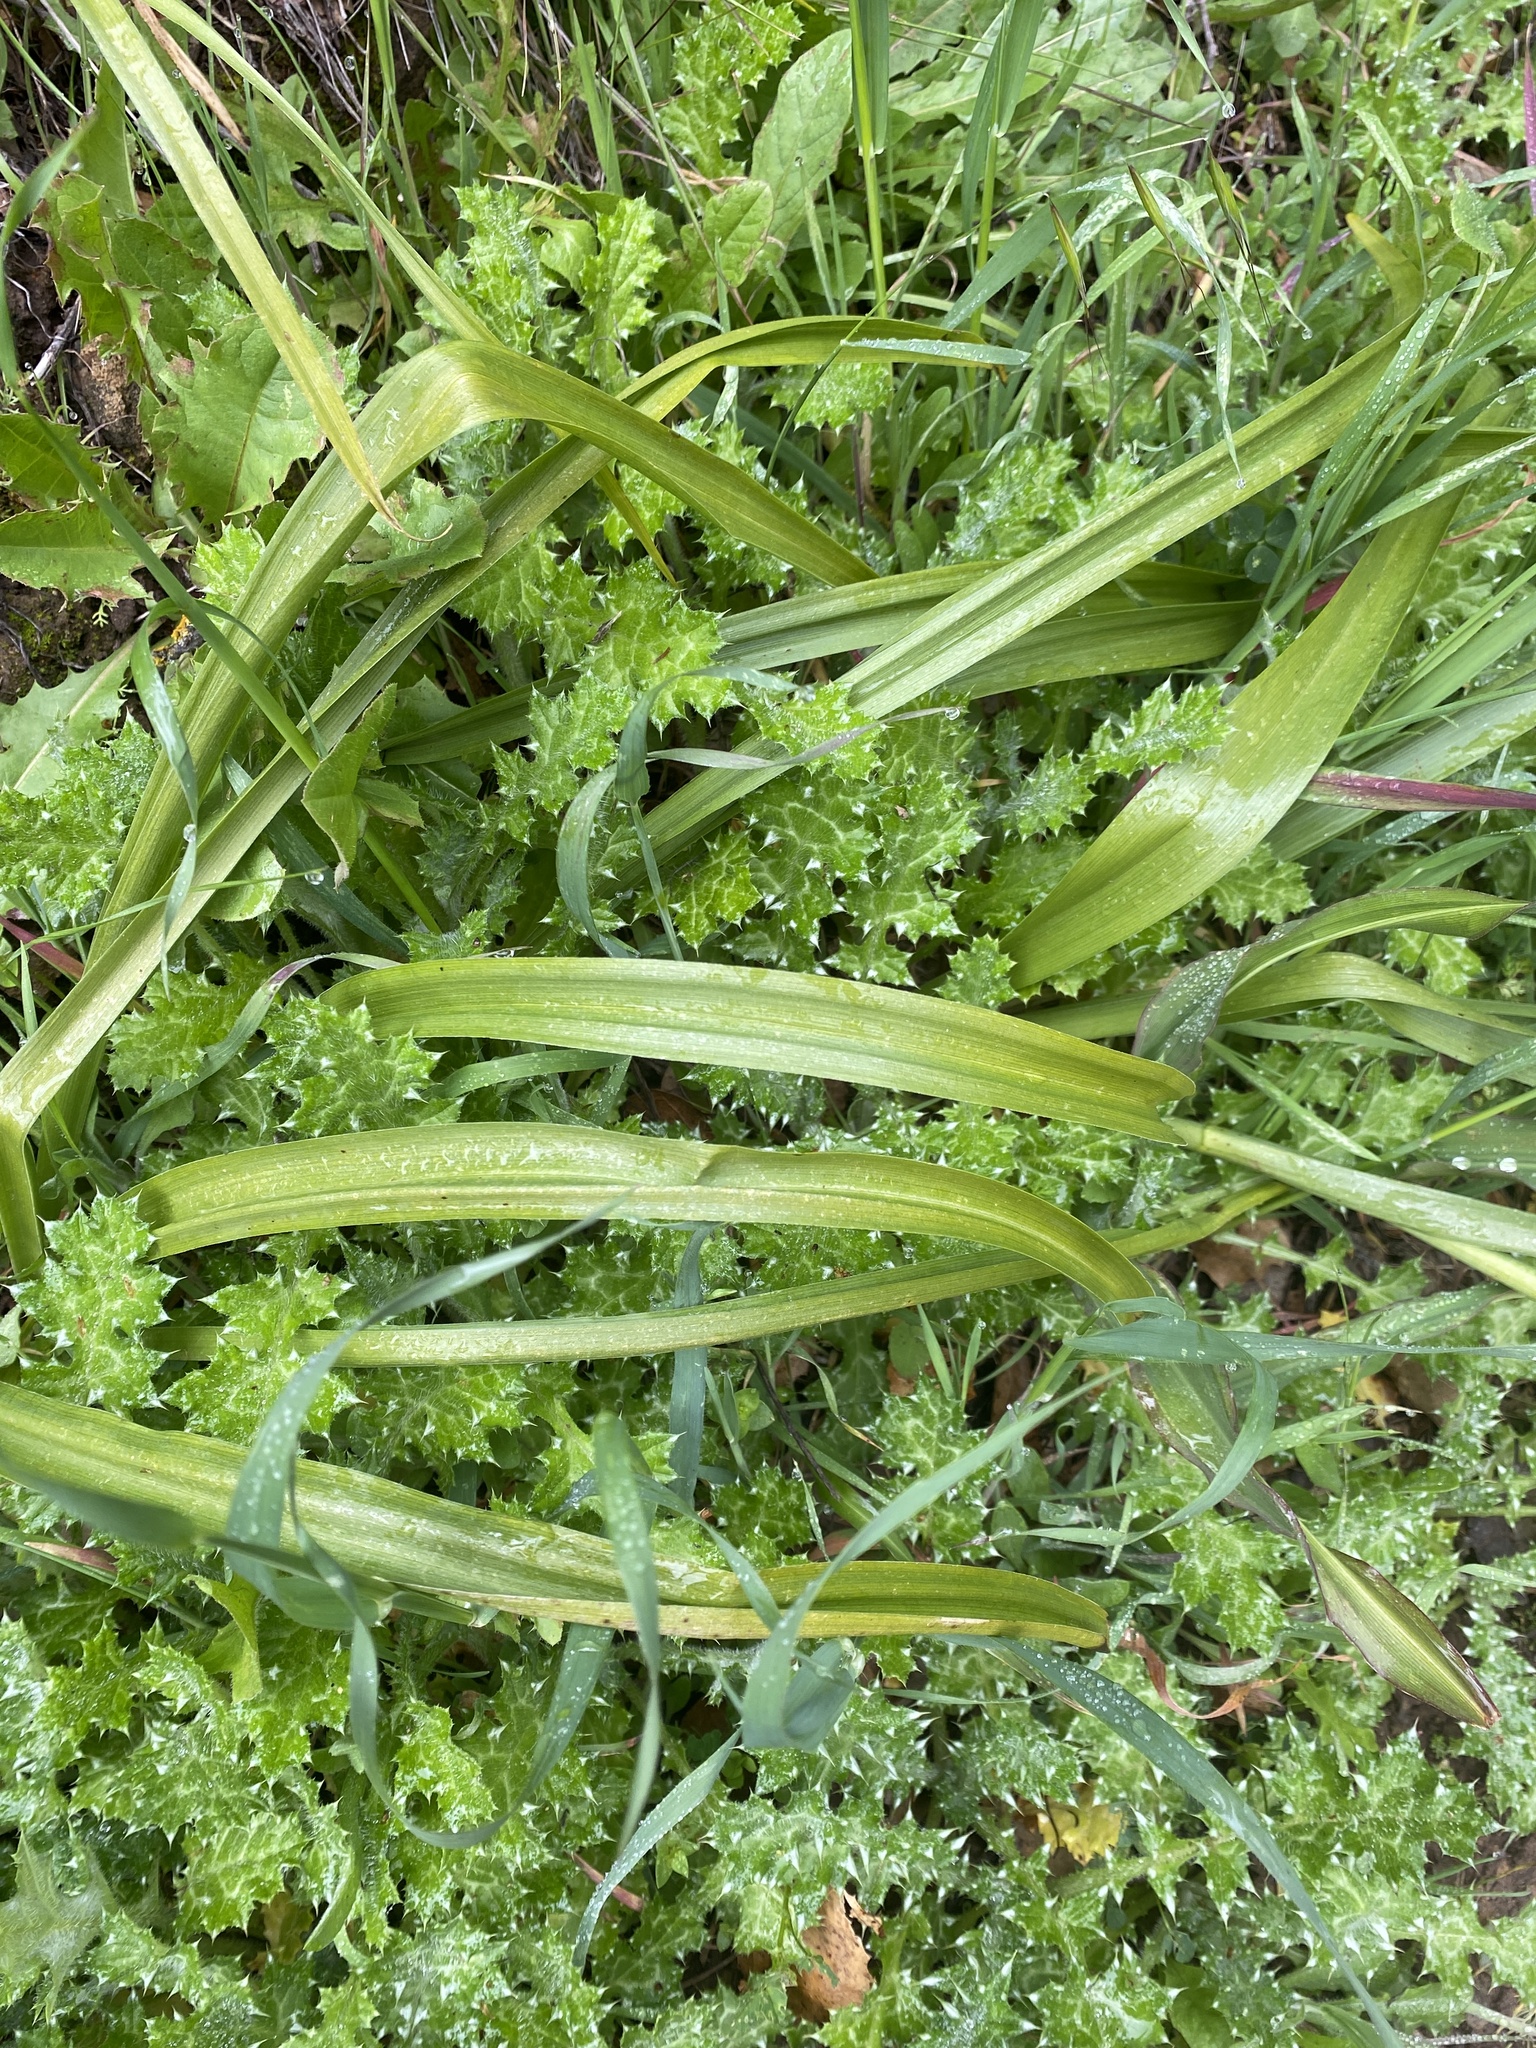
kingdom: Plantae
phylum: Tracheophyta
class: Liliopsida
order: Liliales
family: Melanthiaceae
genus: Toxicoscordion
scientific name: Toxicoscordion fremontii
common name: Fremont's death camas
